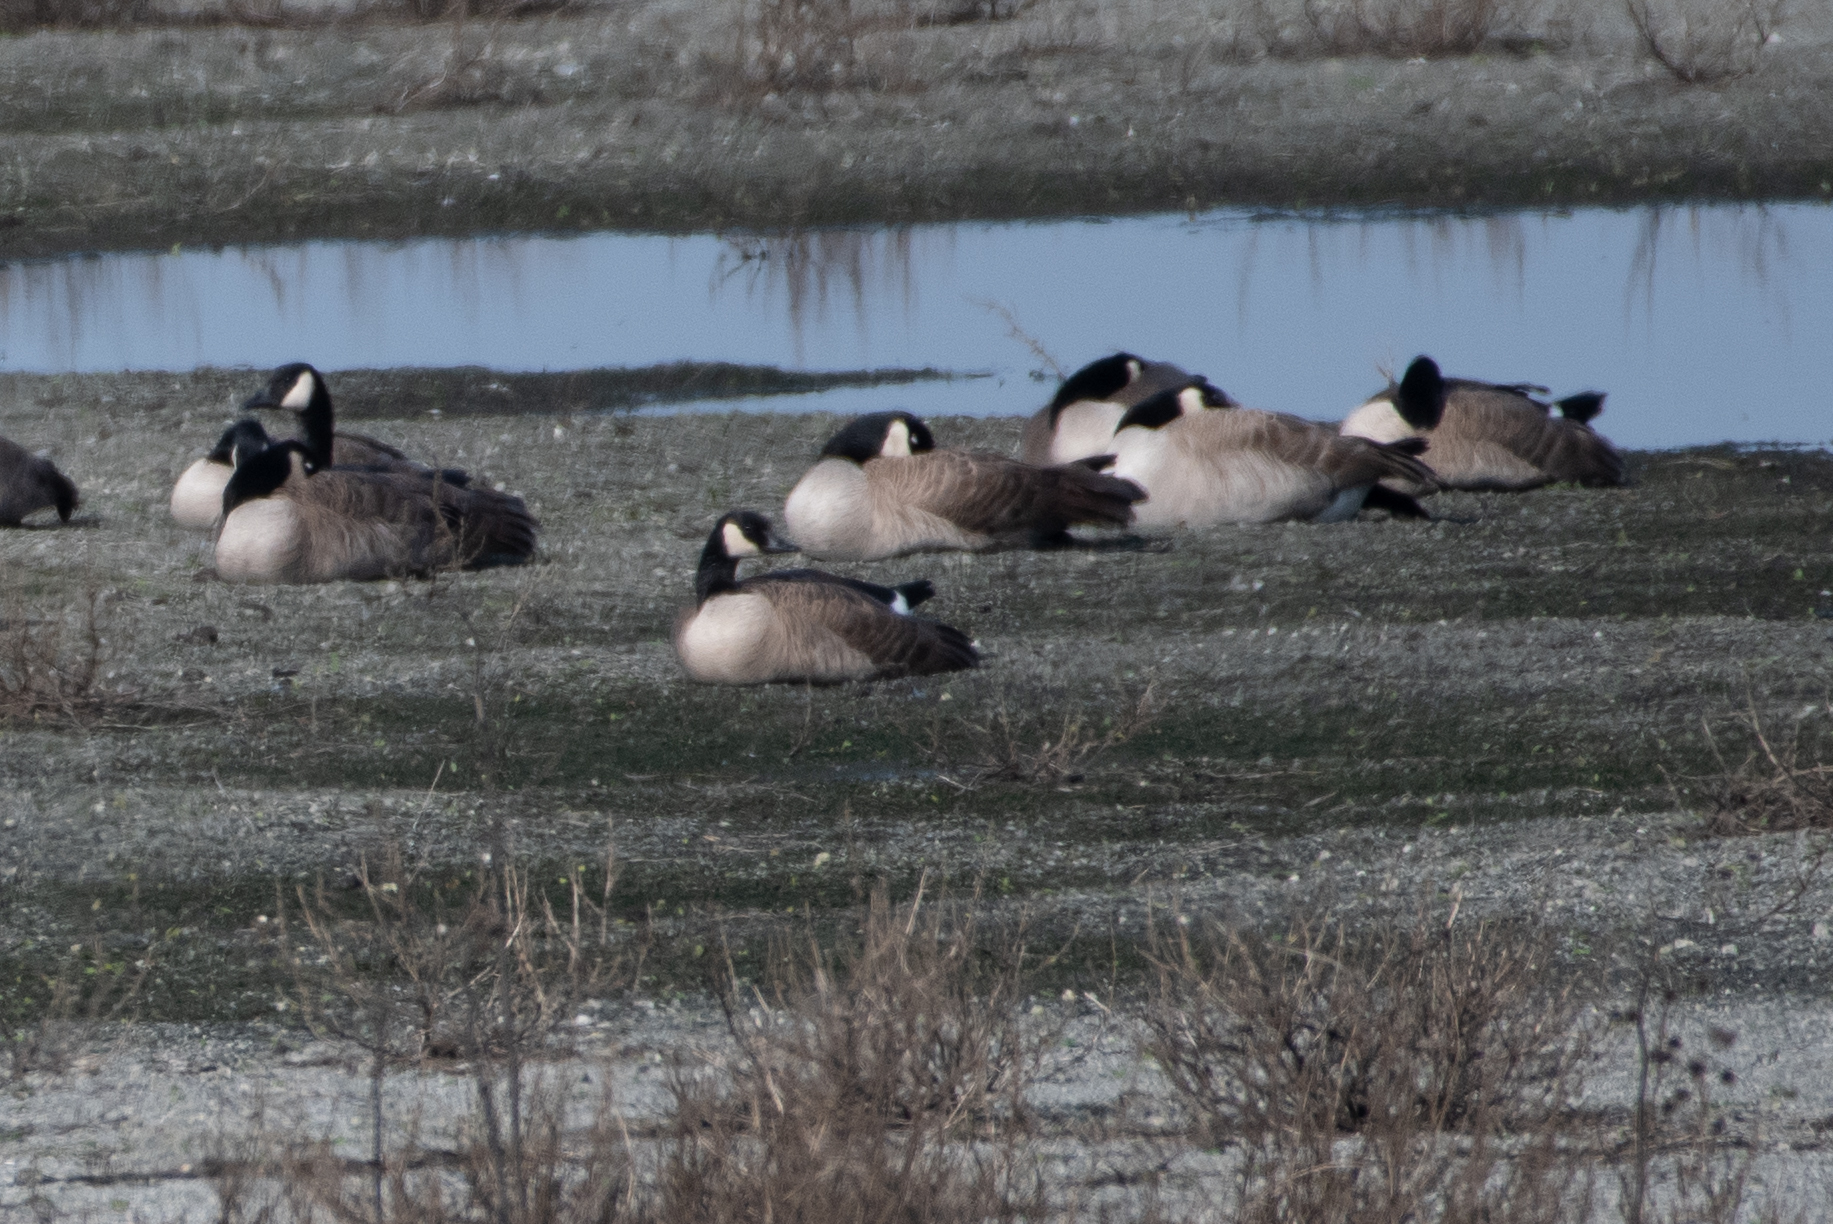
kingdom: Animalia
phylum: Chordata
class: Aves
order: Anseriformes
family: Anatidae
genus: Branta
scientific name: Branta canadensis
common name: Canada goose
